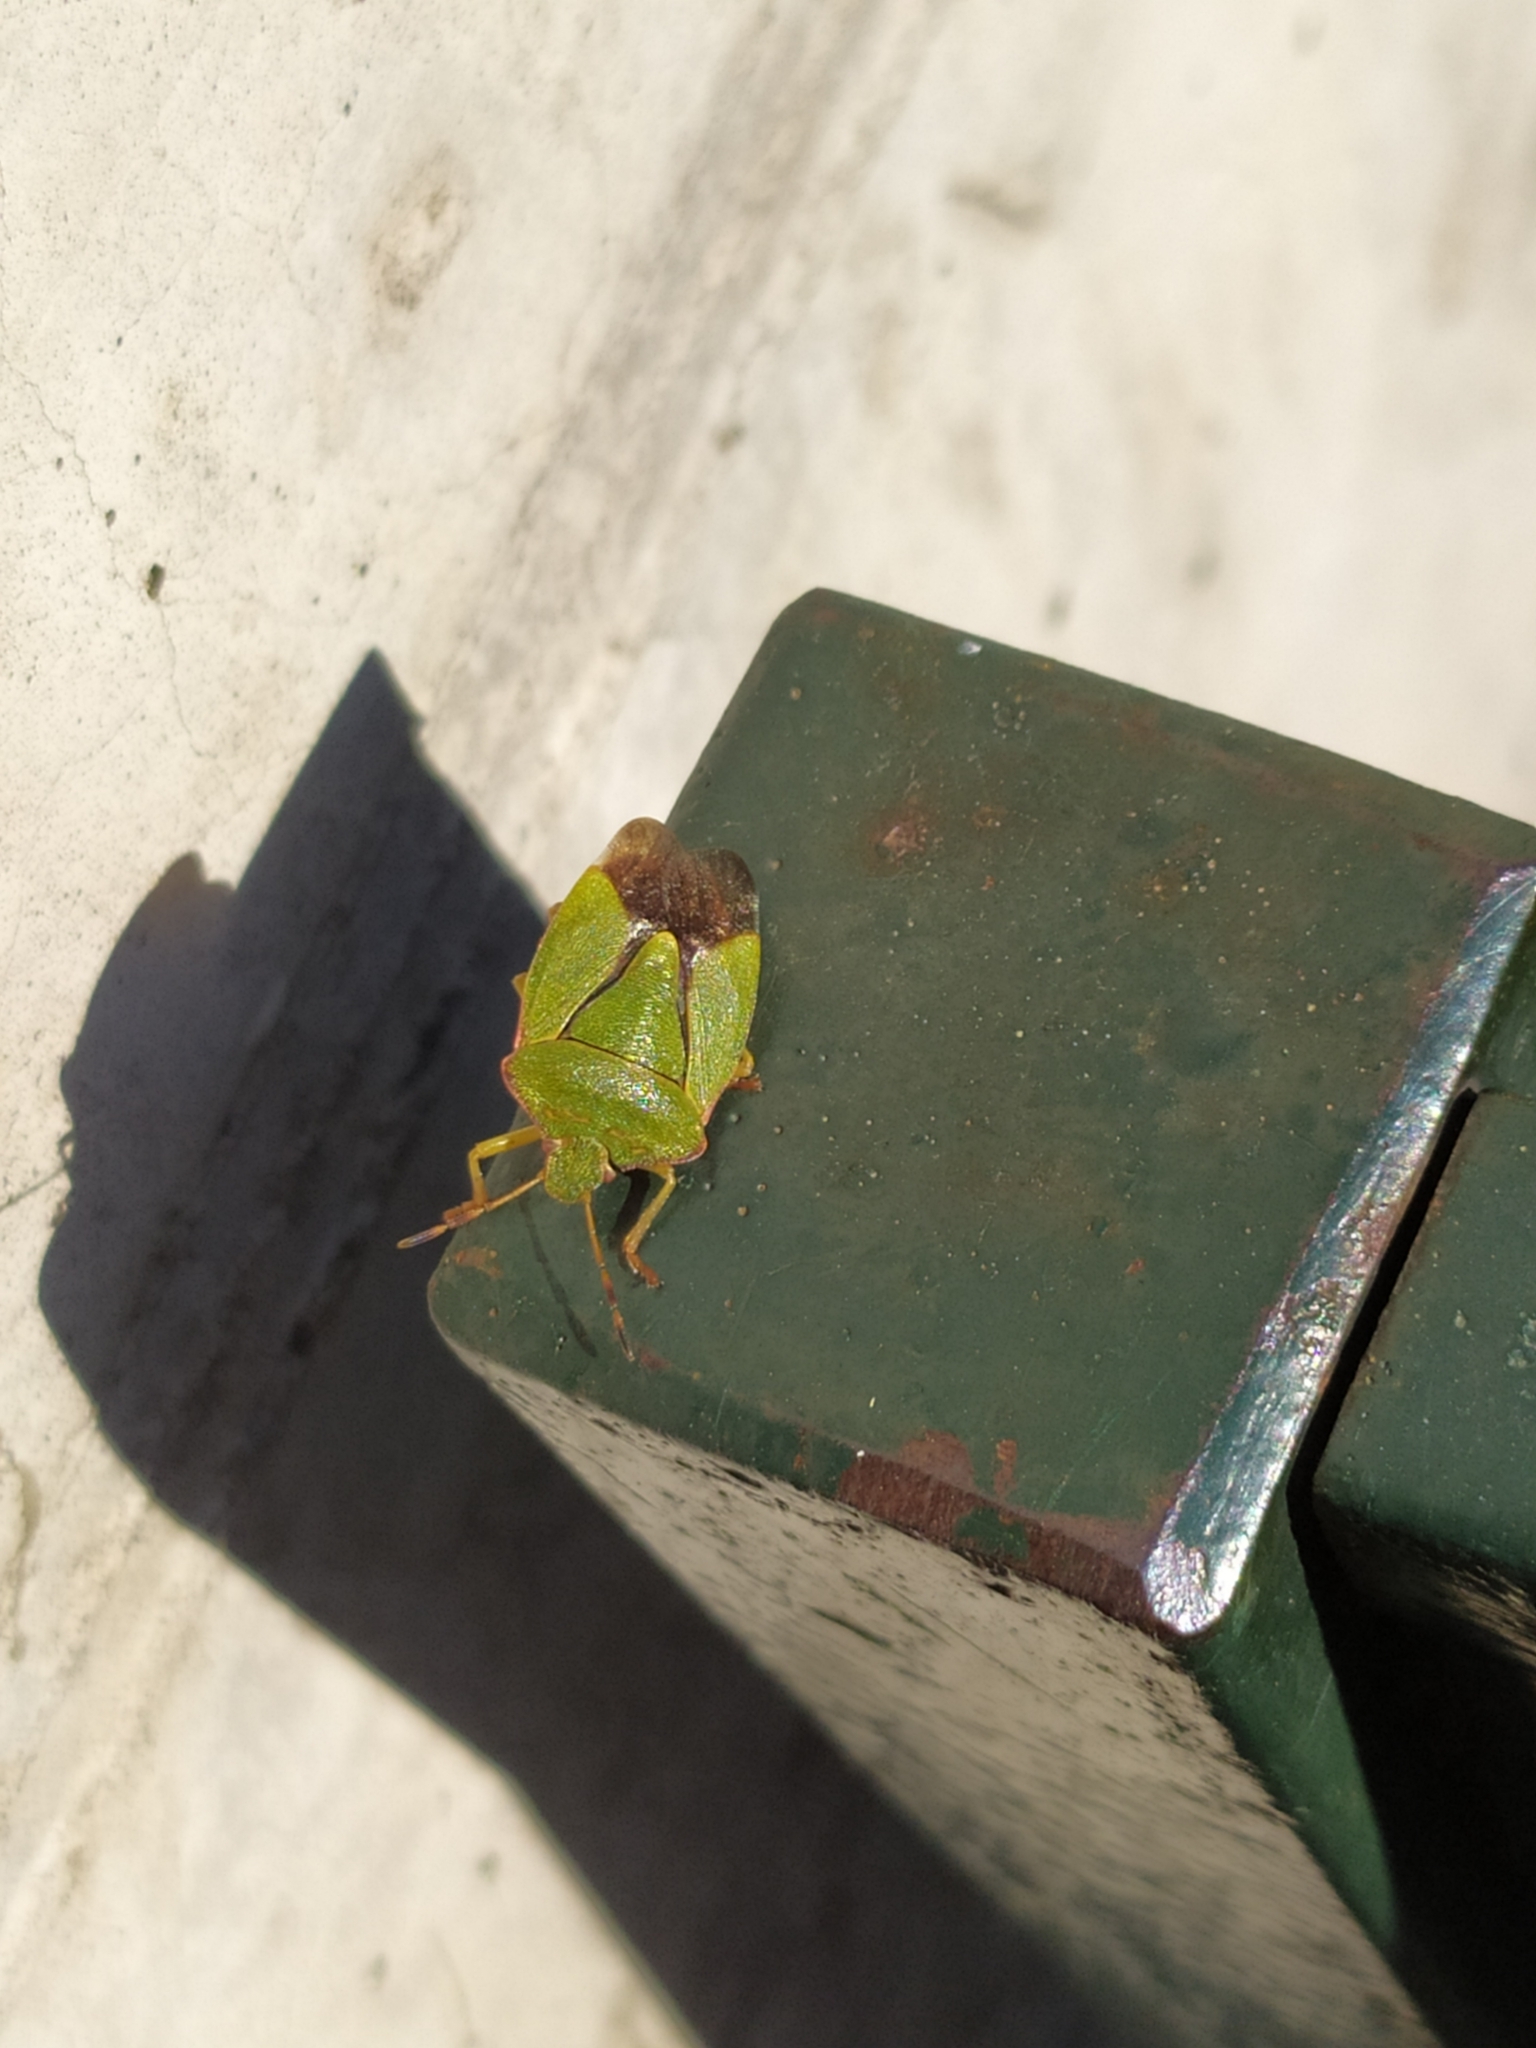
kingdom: Animalia
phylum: Arthropoda
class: Insecta
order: Hemiptera
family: Pentatomidae
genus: Palomena
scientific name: Palomena prasina
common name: Green shieldbug
